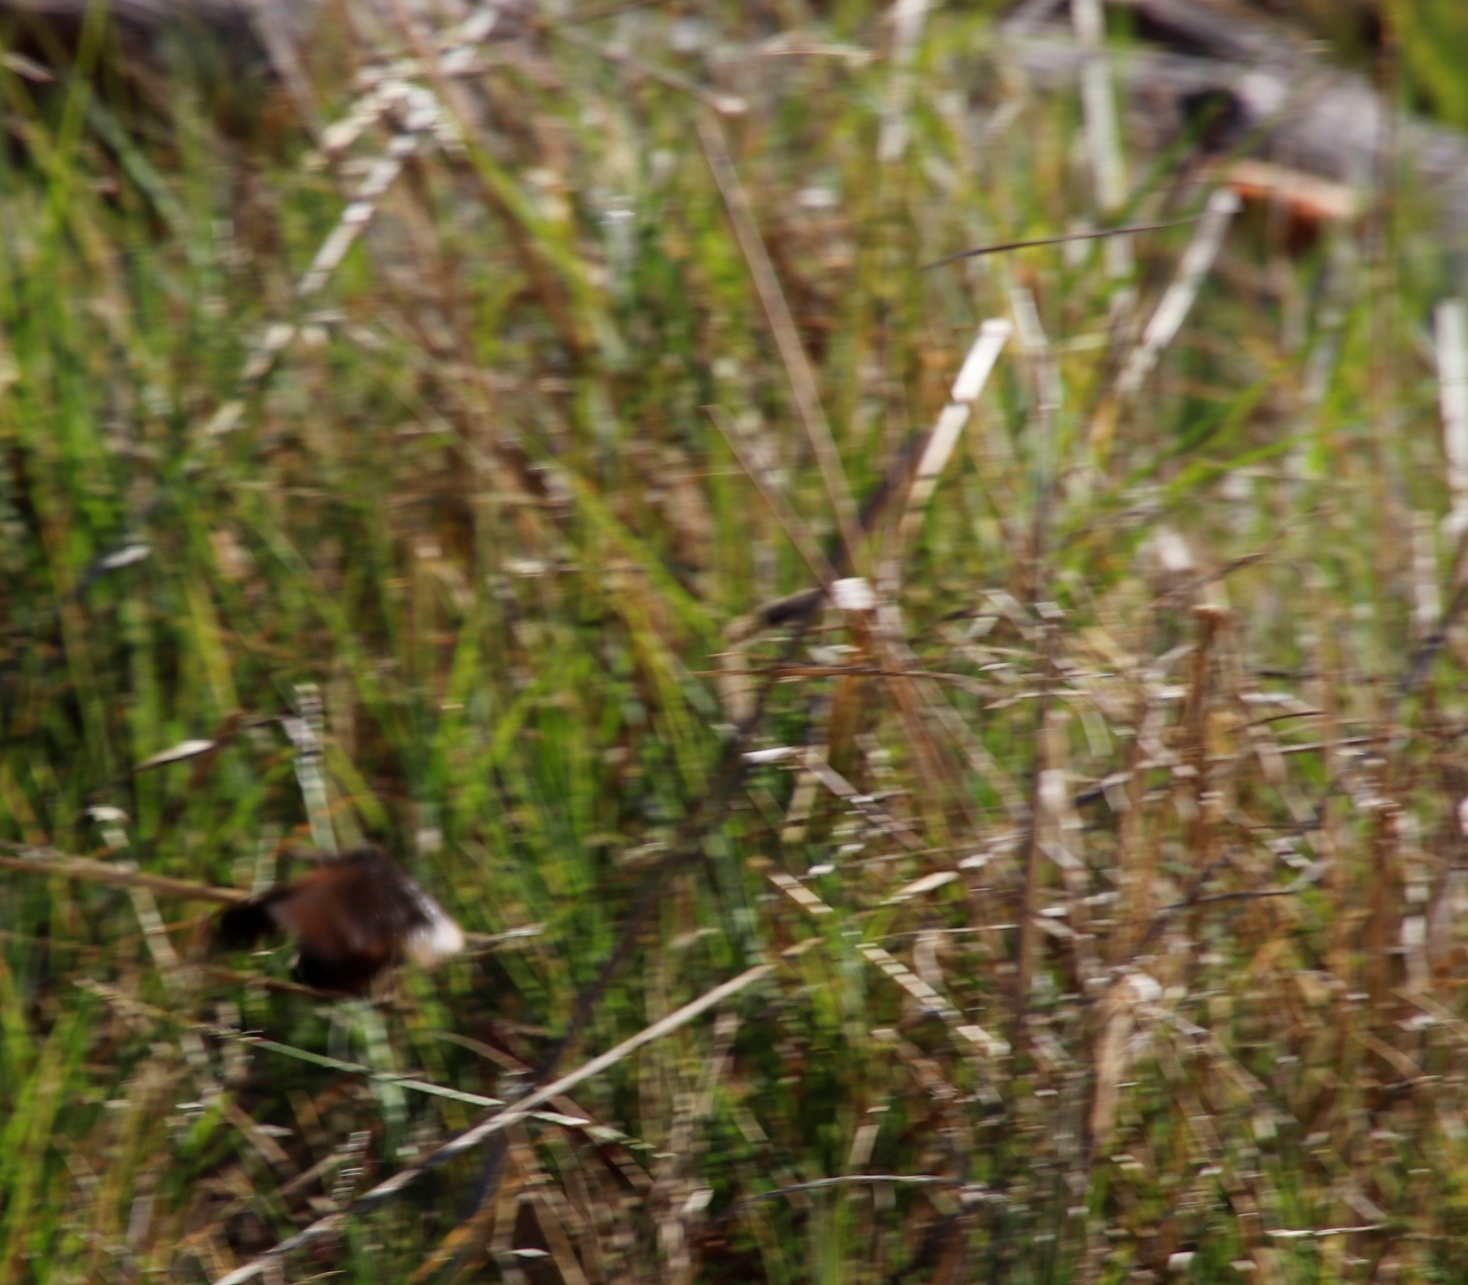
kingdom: Animalia
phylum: Arthropoda
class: Insecta
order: Lepidoptera
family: Nymphalidae
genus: Dira
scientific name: Dira clytus
